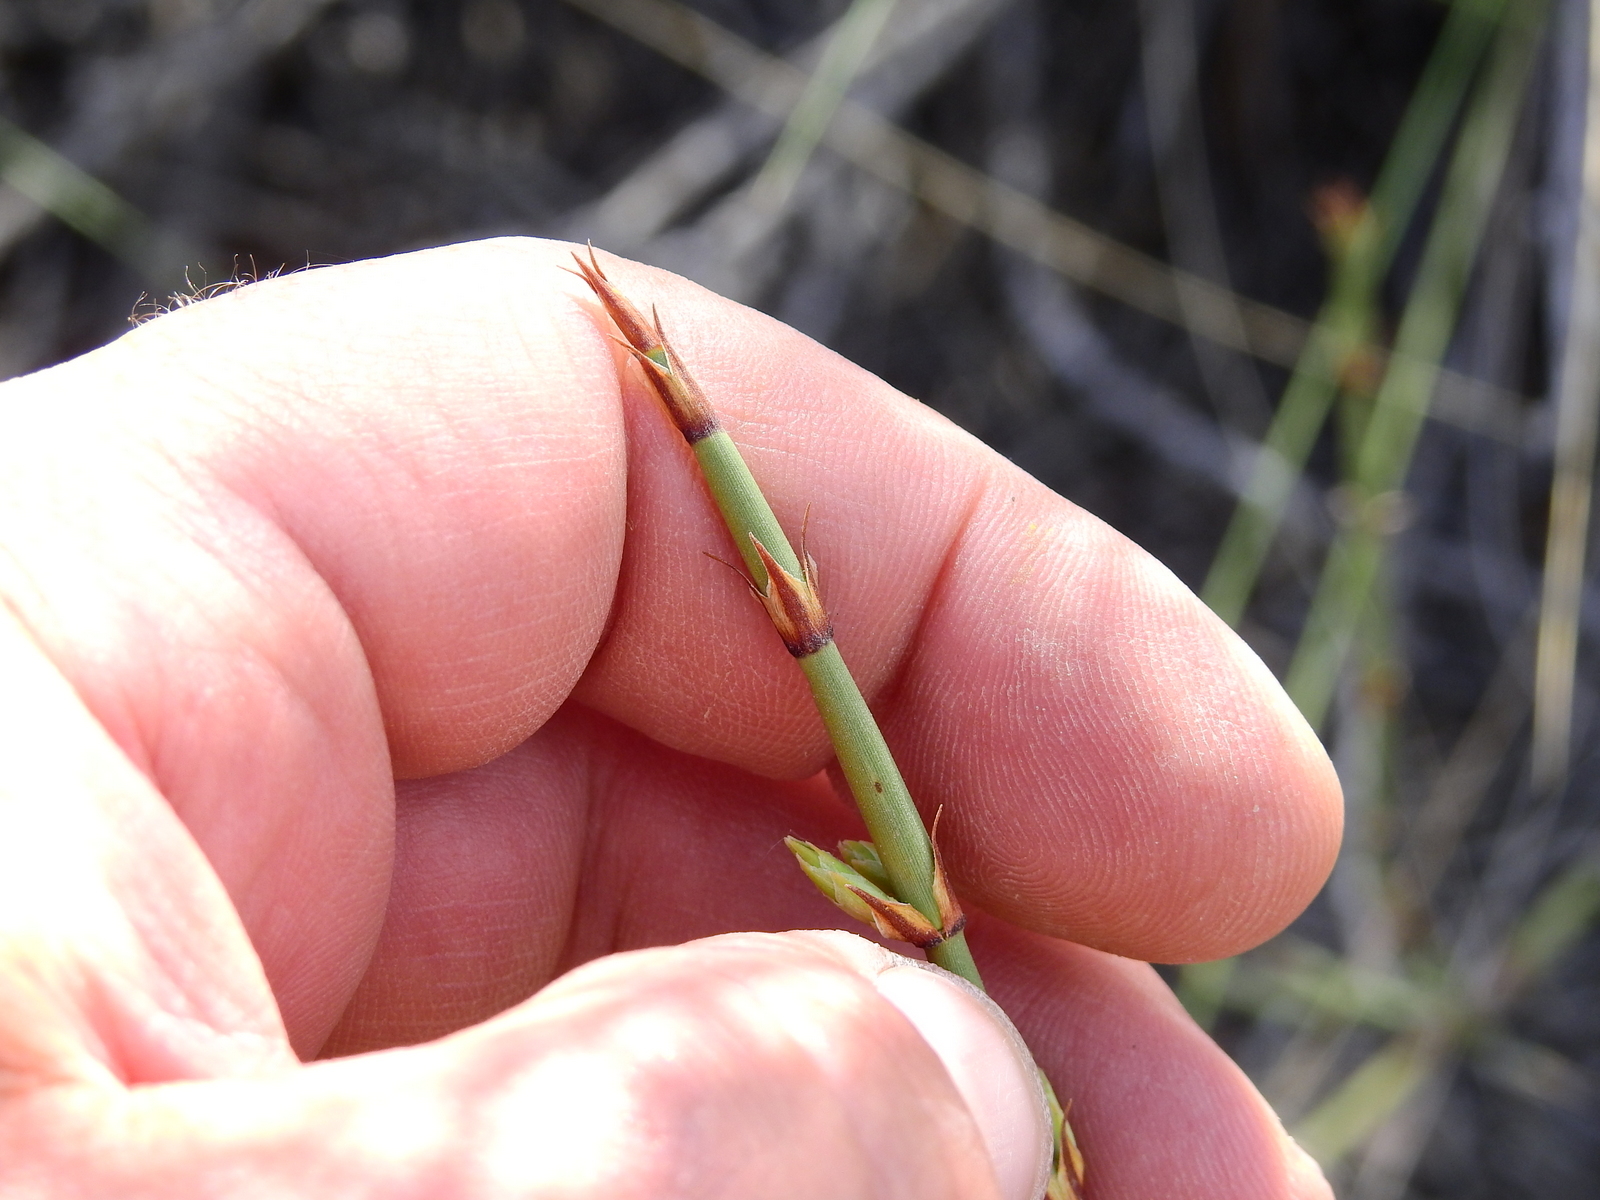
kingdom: Plantae
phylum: Tracheophyta
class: Gnetopsida
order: Ephedrales
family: Ephedraceae
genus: Ephedra
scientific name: Ephedra ochreata
